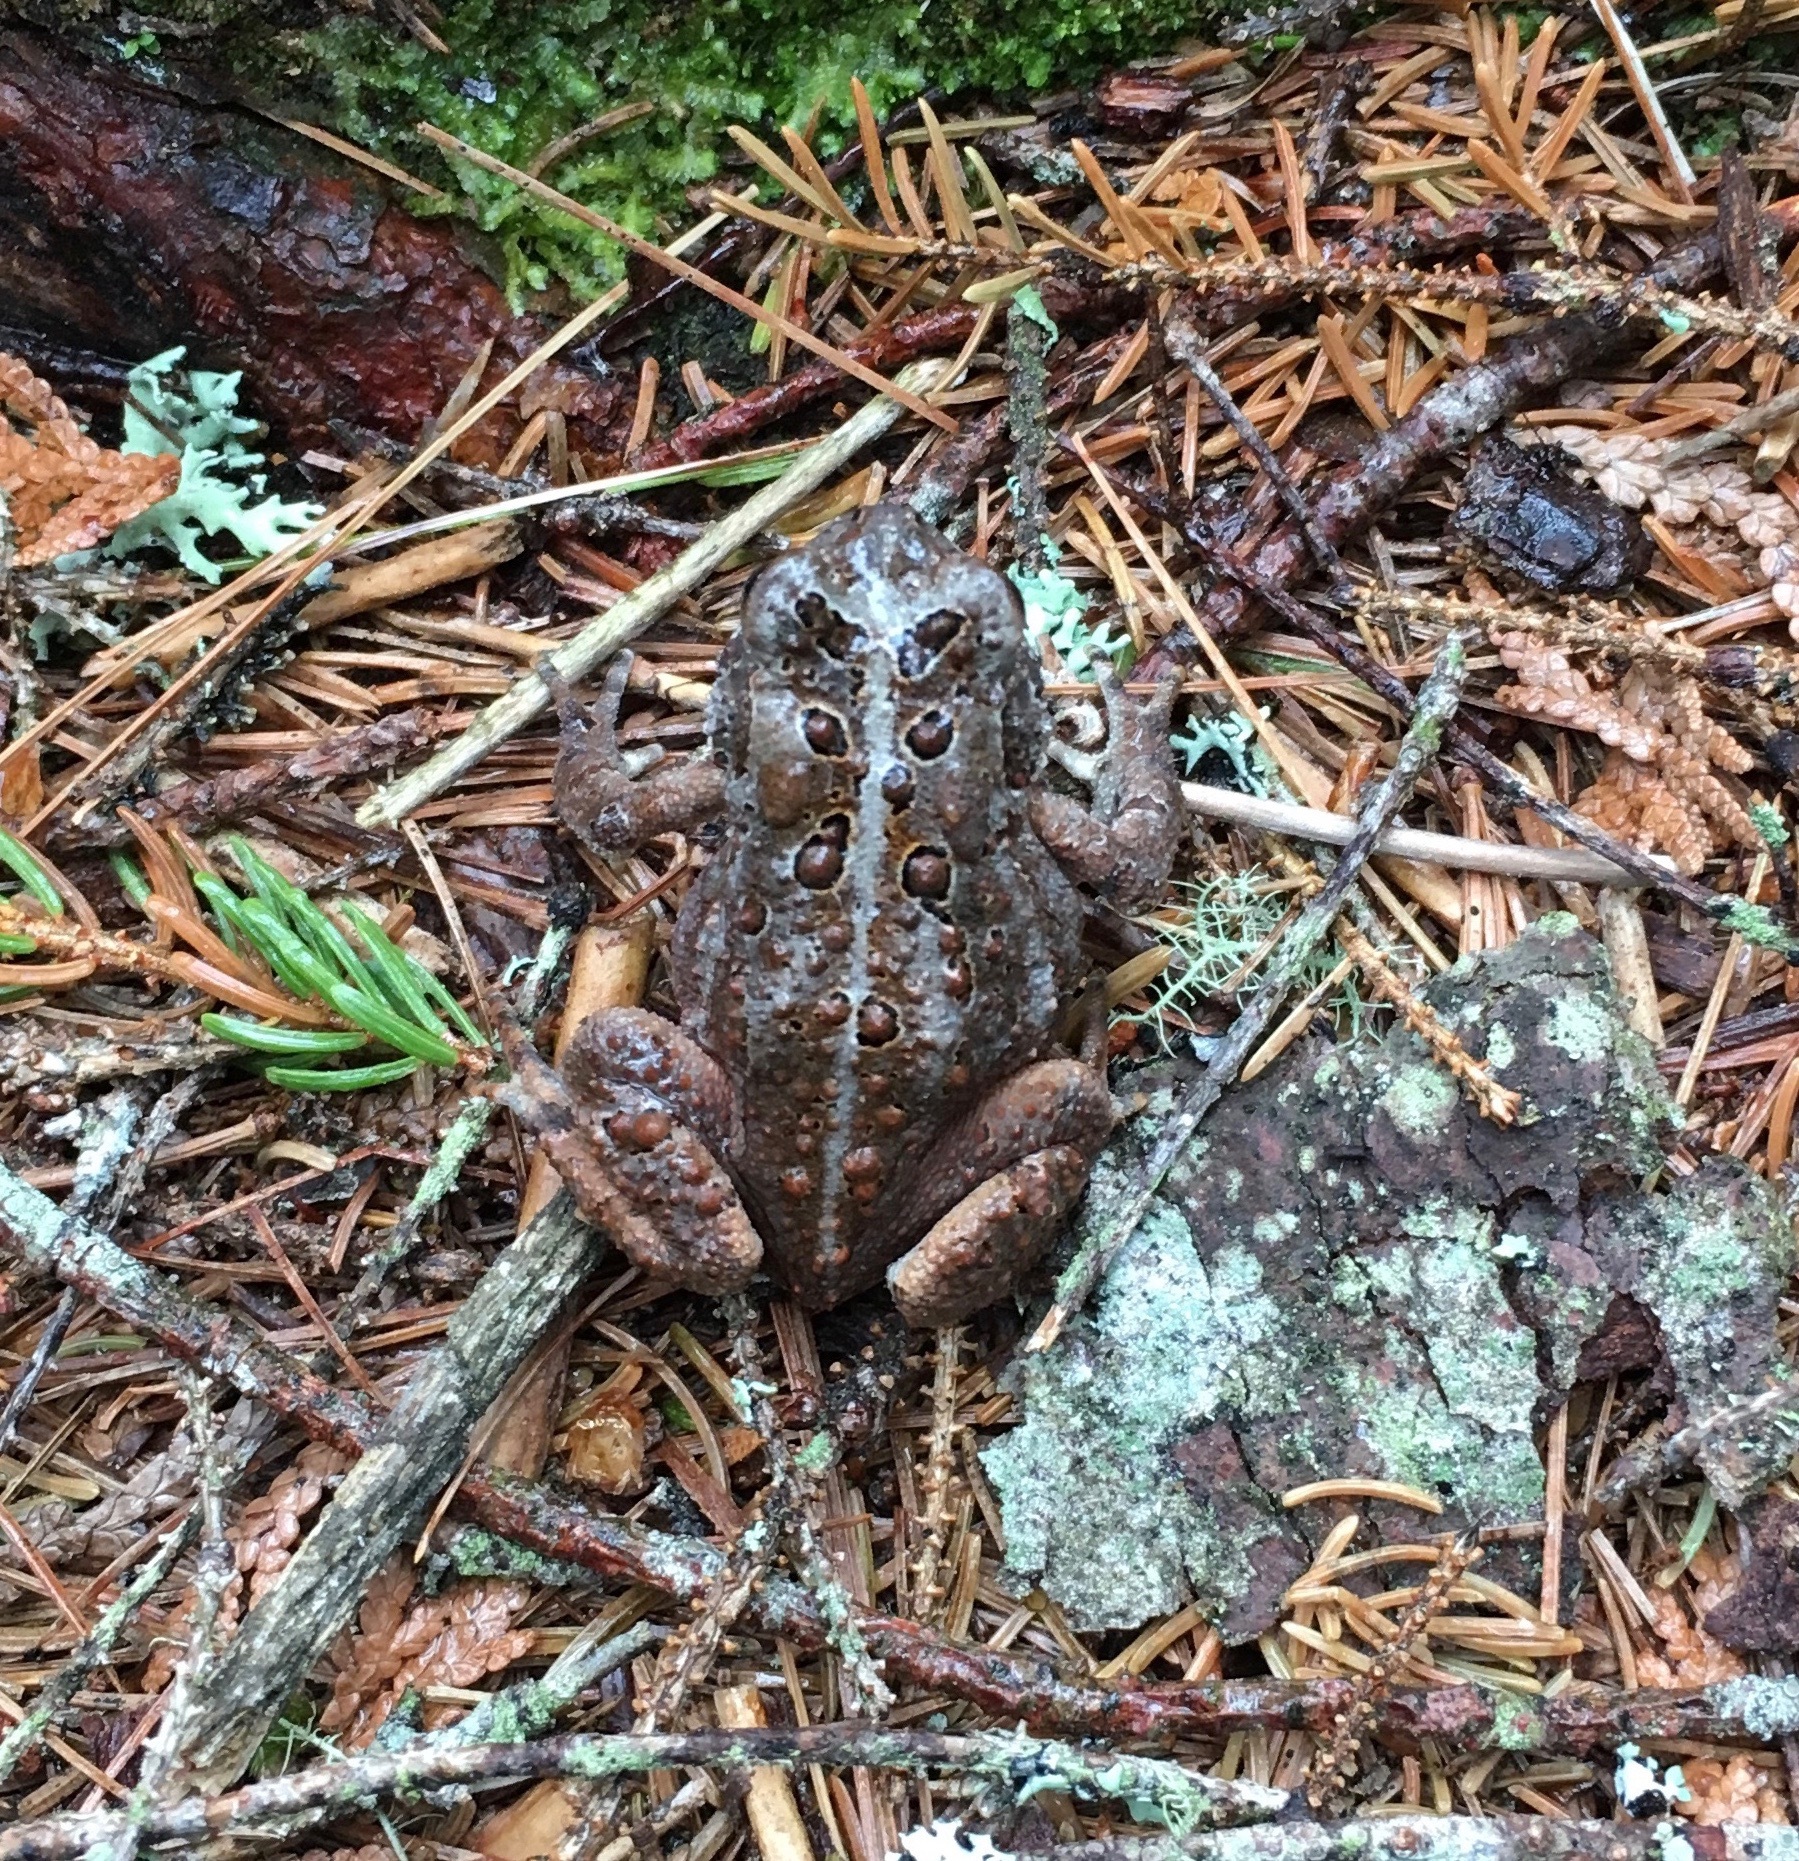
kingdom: Animalia
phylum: Chordata
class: Amphibia
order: Anura
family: Bufonidae
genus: Anaxyrus
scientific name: Anaxyrus americanus
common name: American toad
